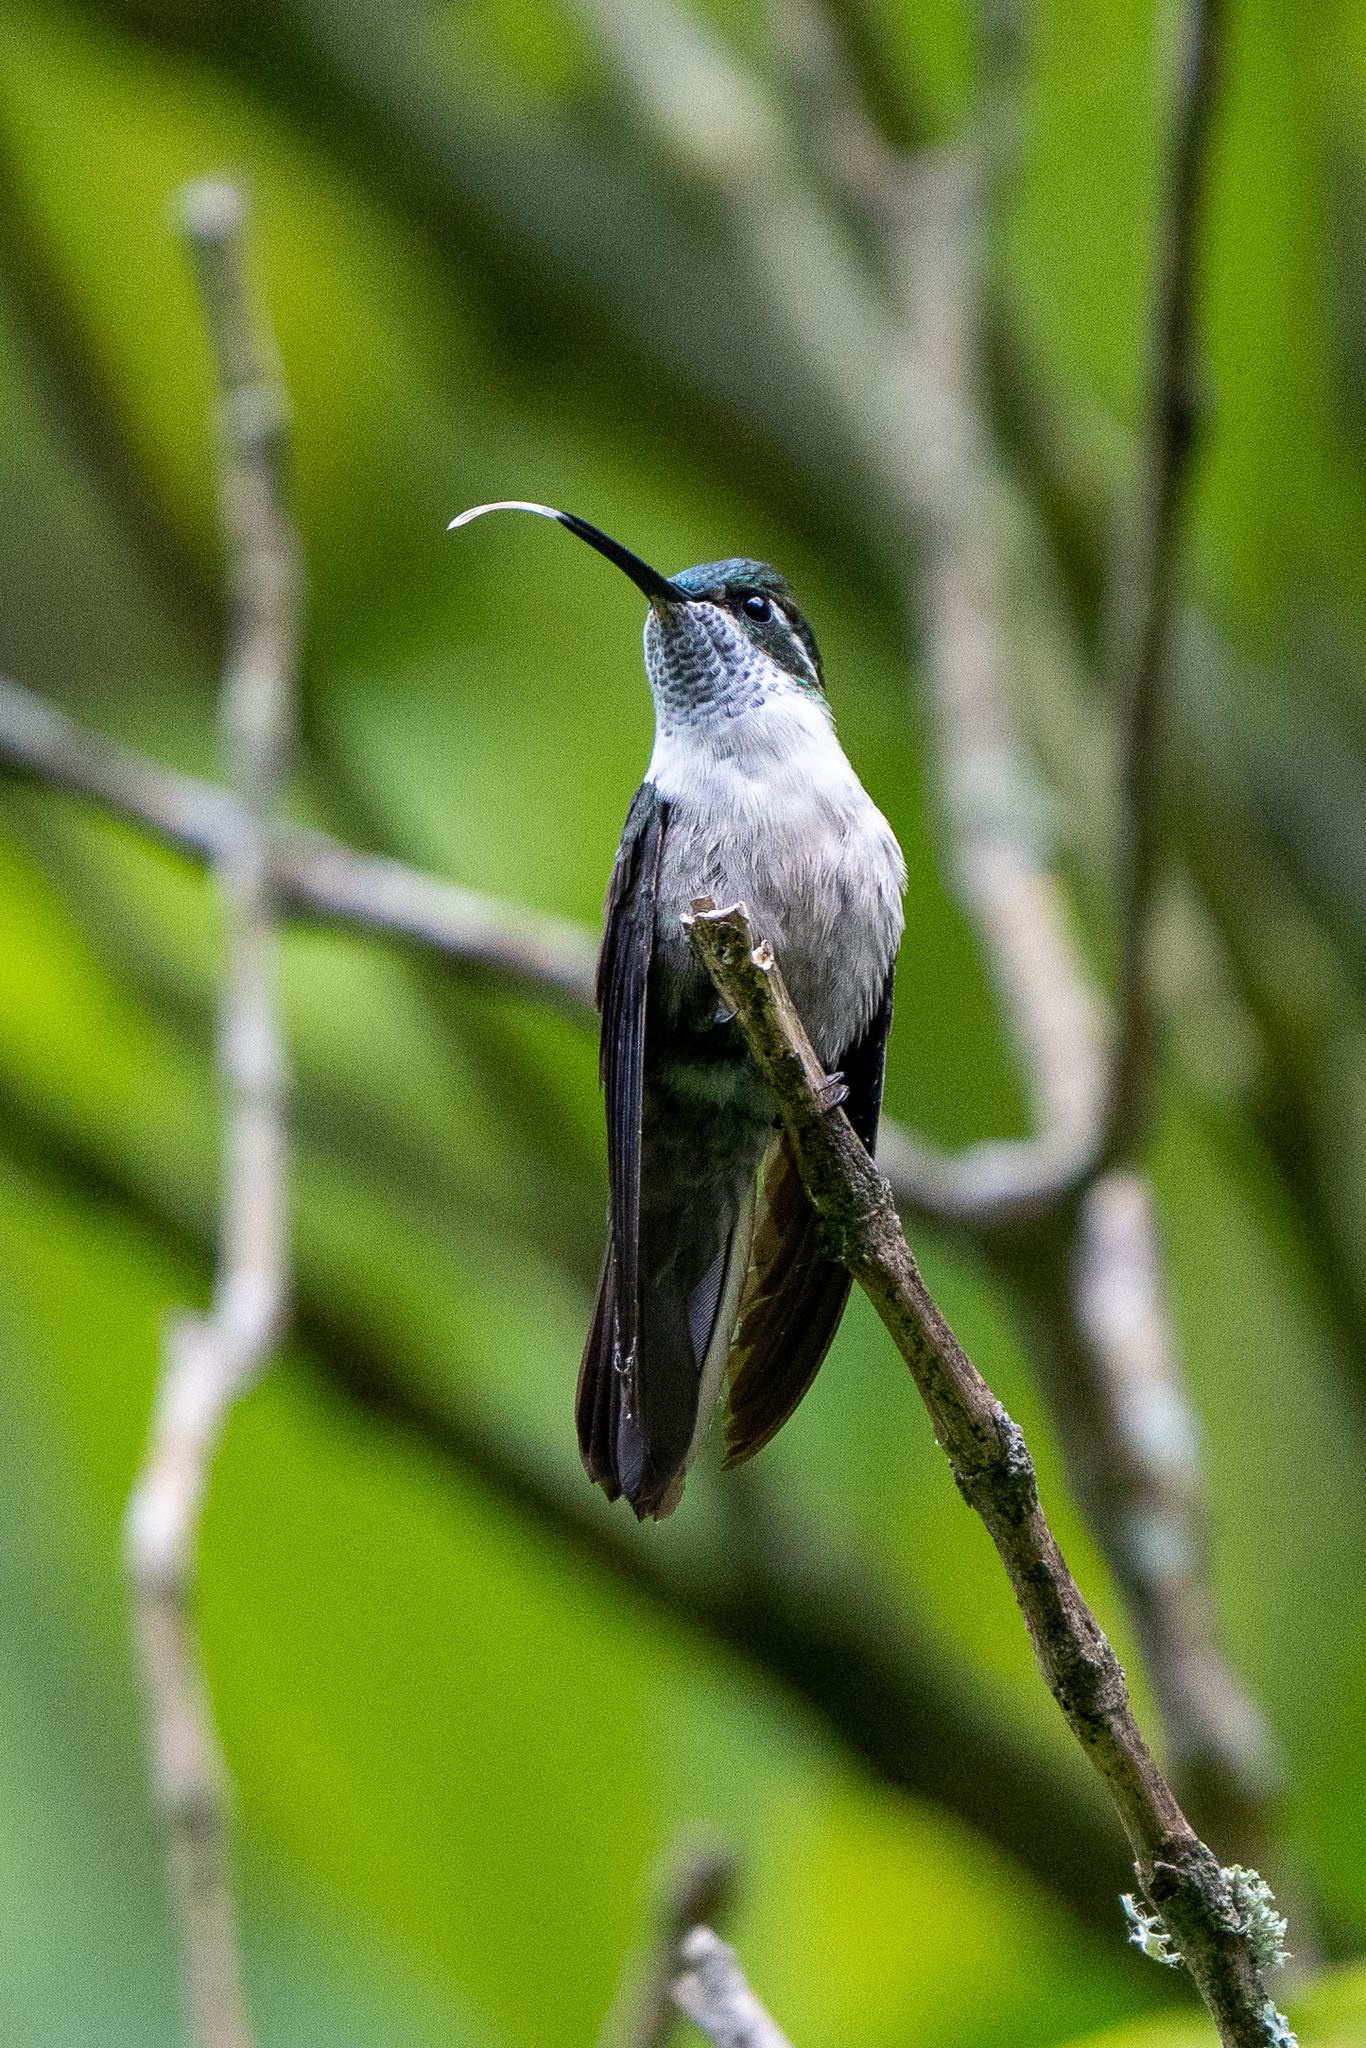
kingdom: Animalia
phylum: Chordata
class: Aves
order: Apodiformes
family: Trochilidae
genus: Lampornis
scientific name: Lampornis viridipallens
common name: Green-throated mountain-gem
